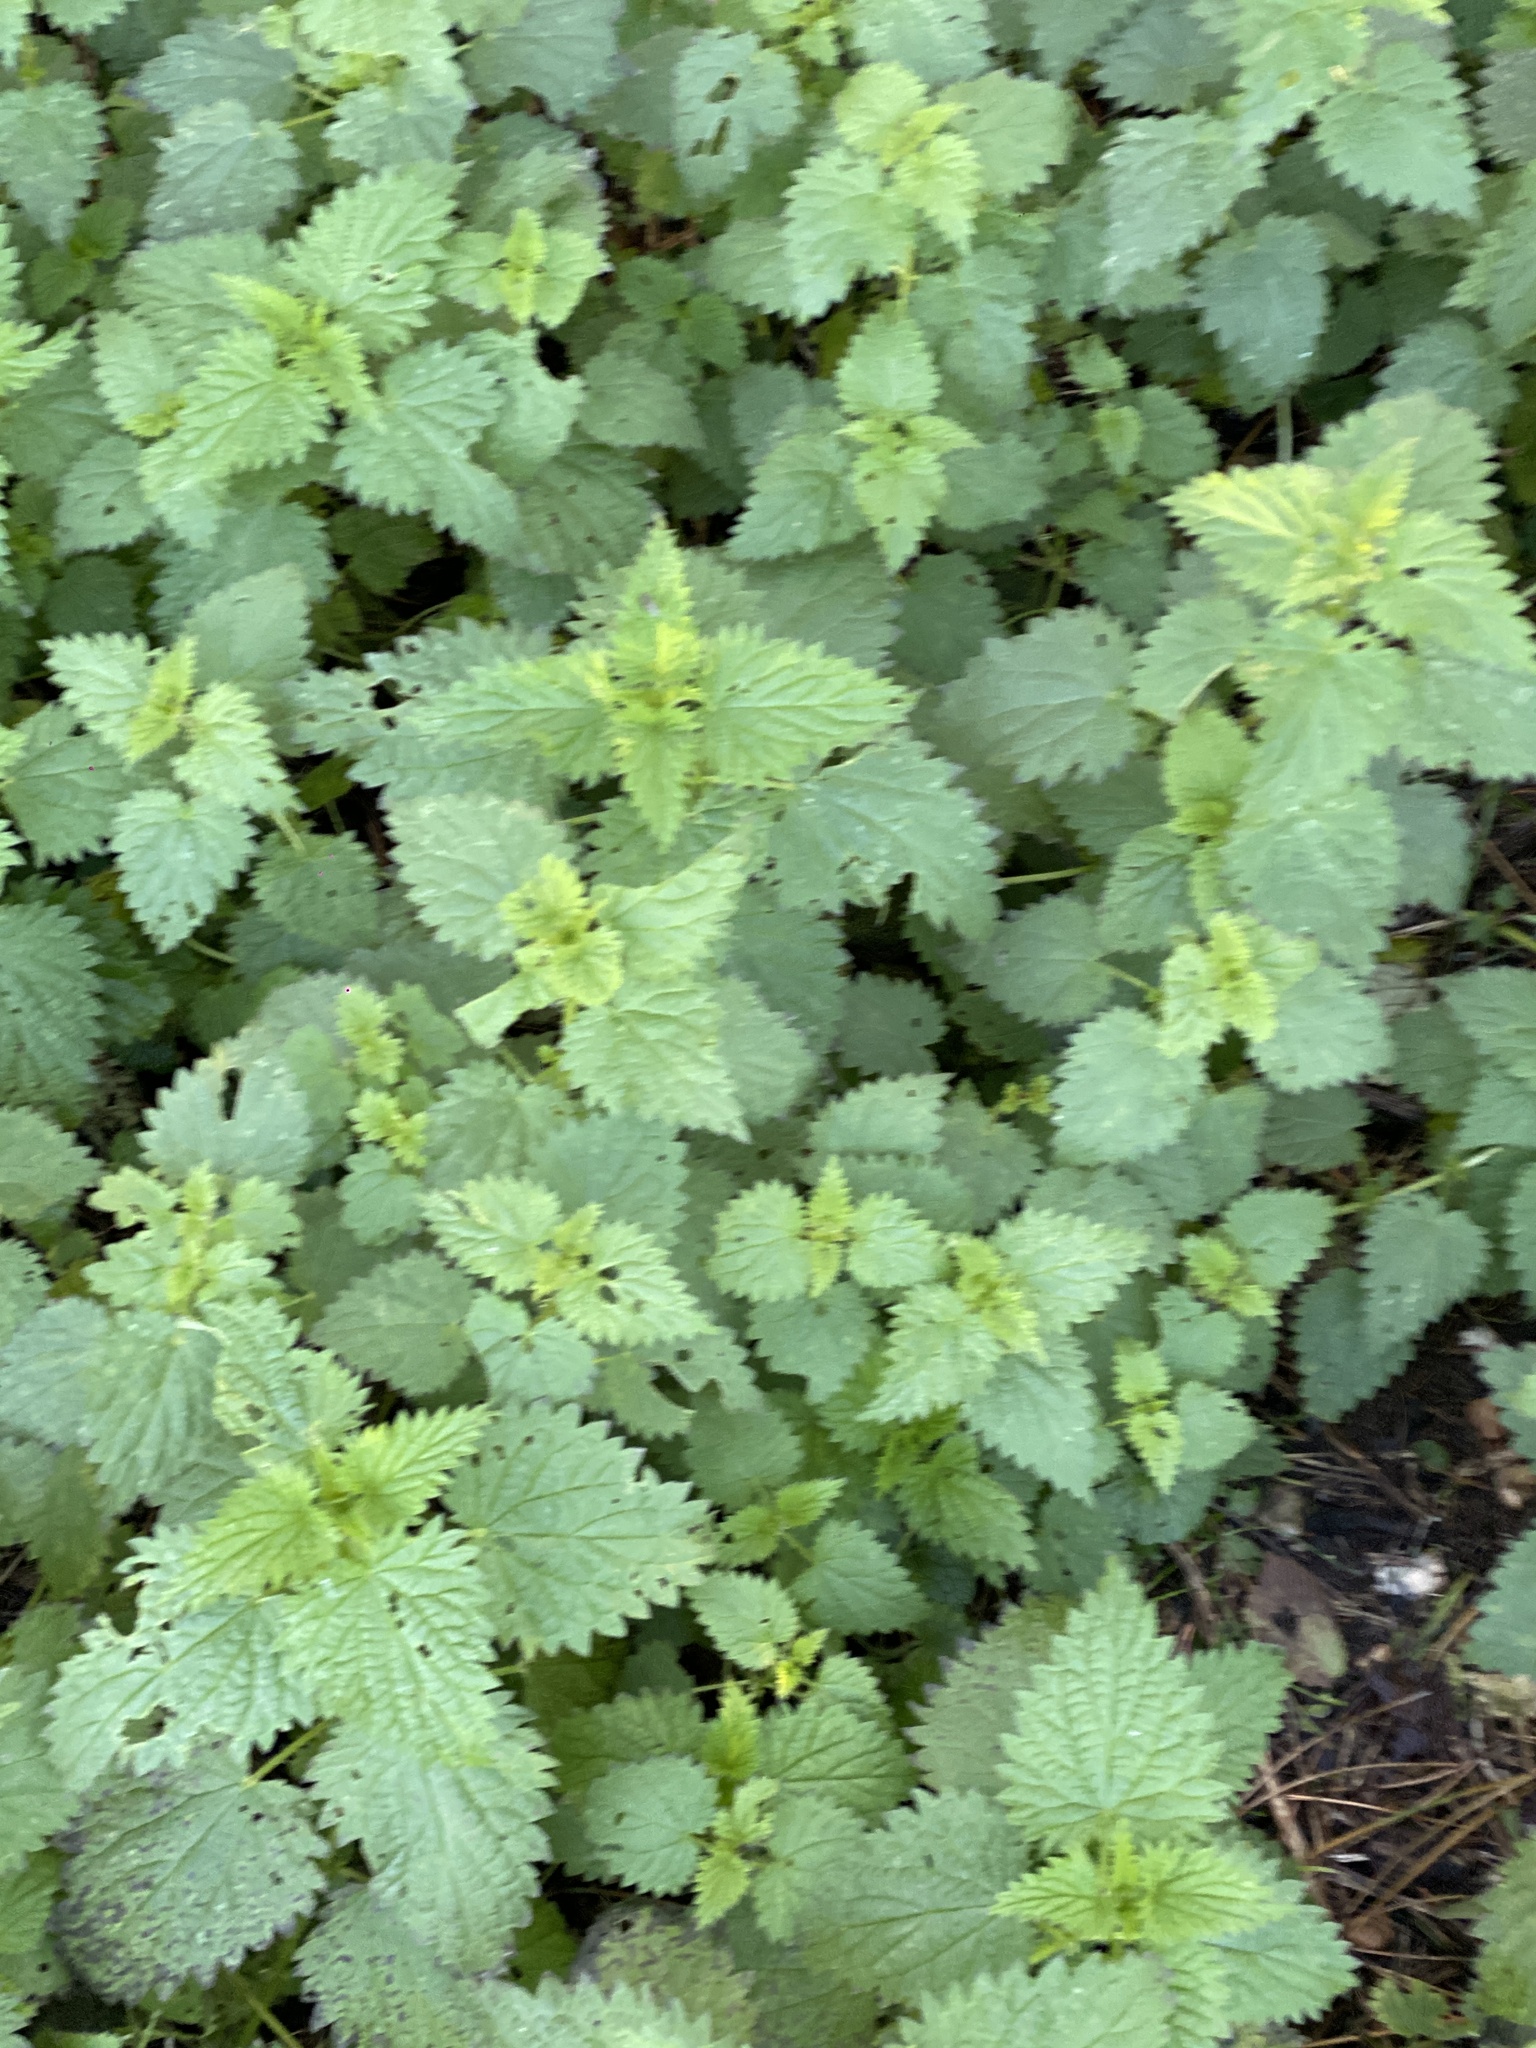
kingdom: Plantae
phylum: Tracheophyta
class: Magnoliopsida
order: Rosales
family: Urticaceae
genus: Urtica
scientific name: Urtica dioica
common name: Common nettle
